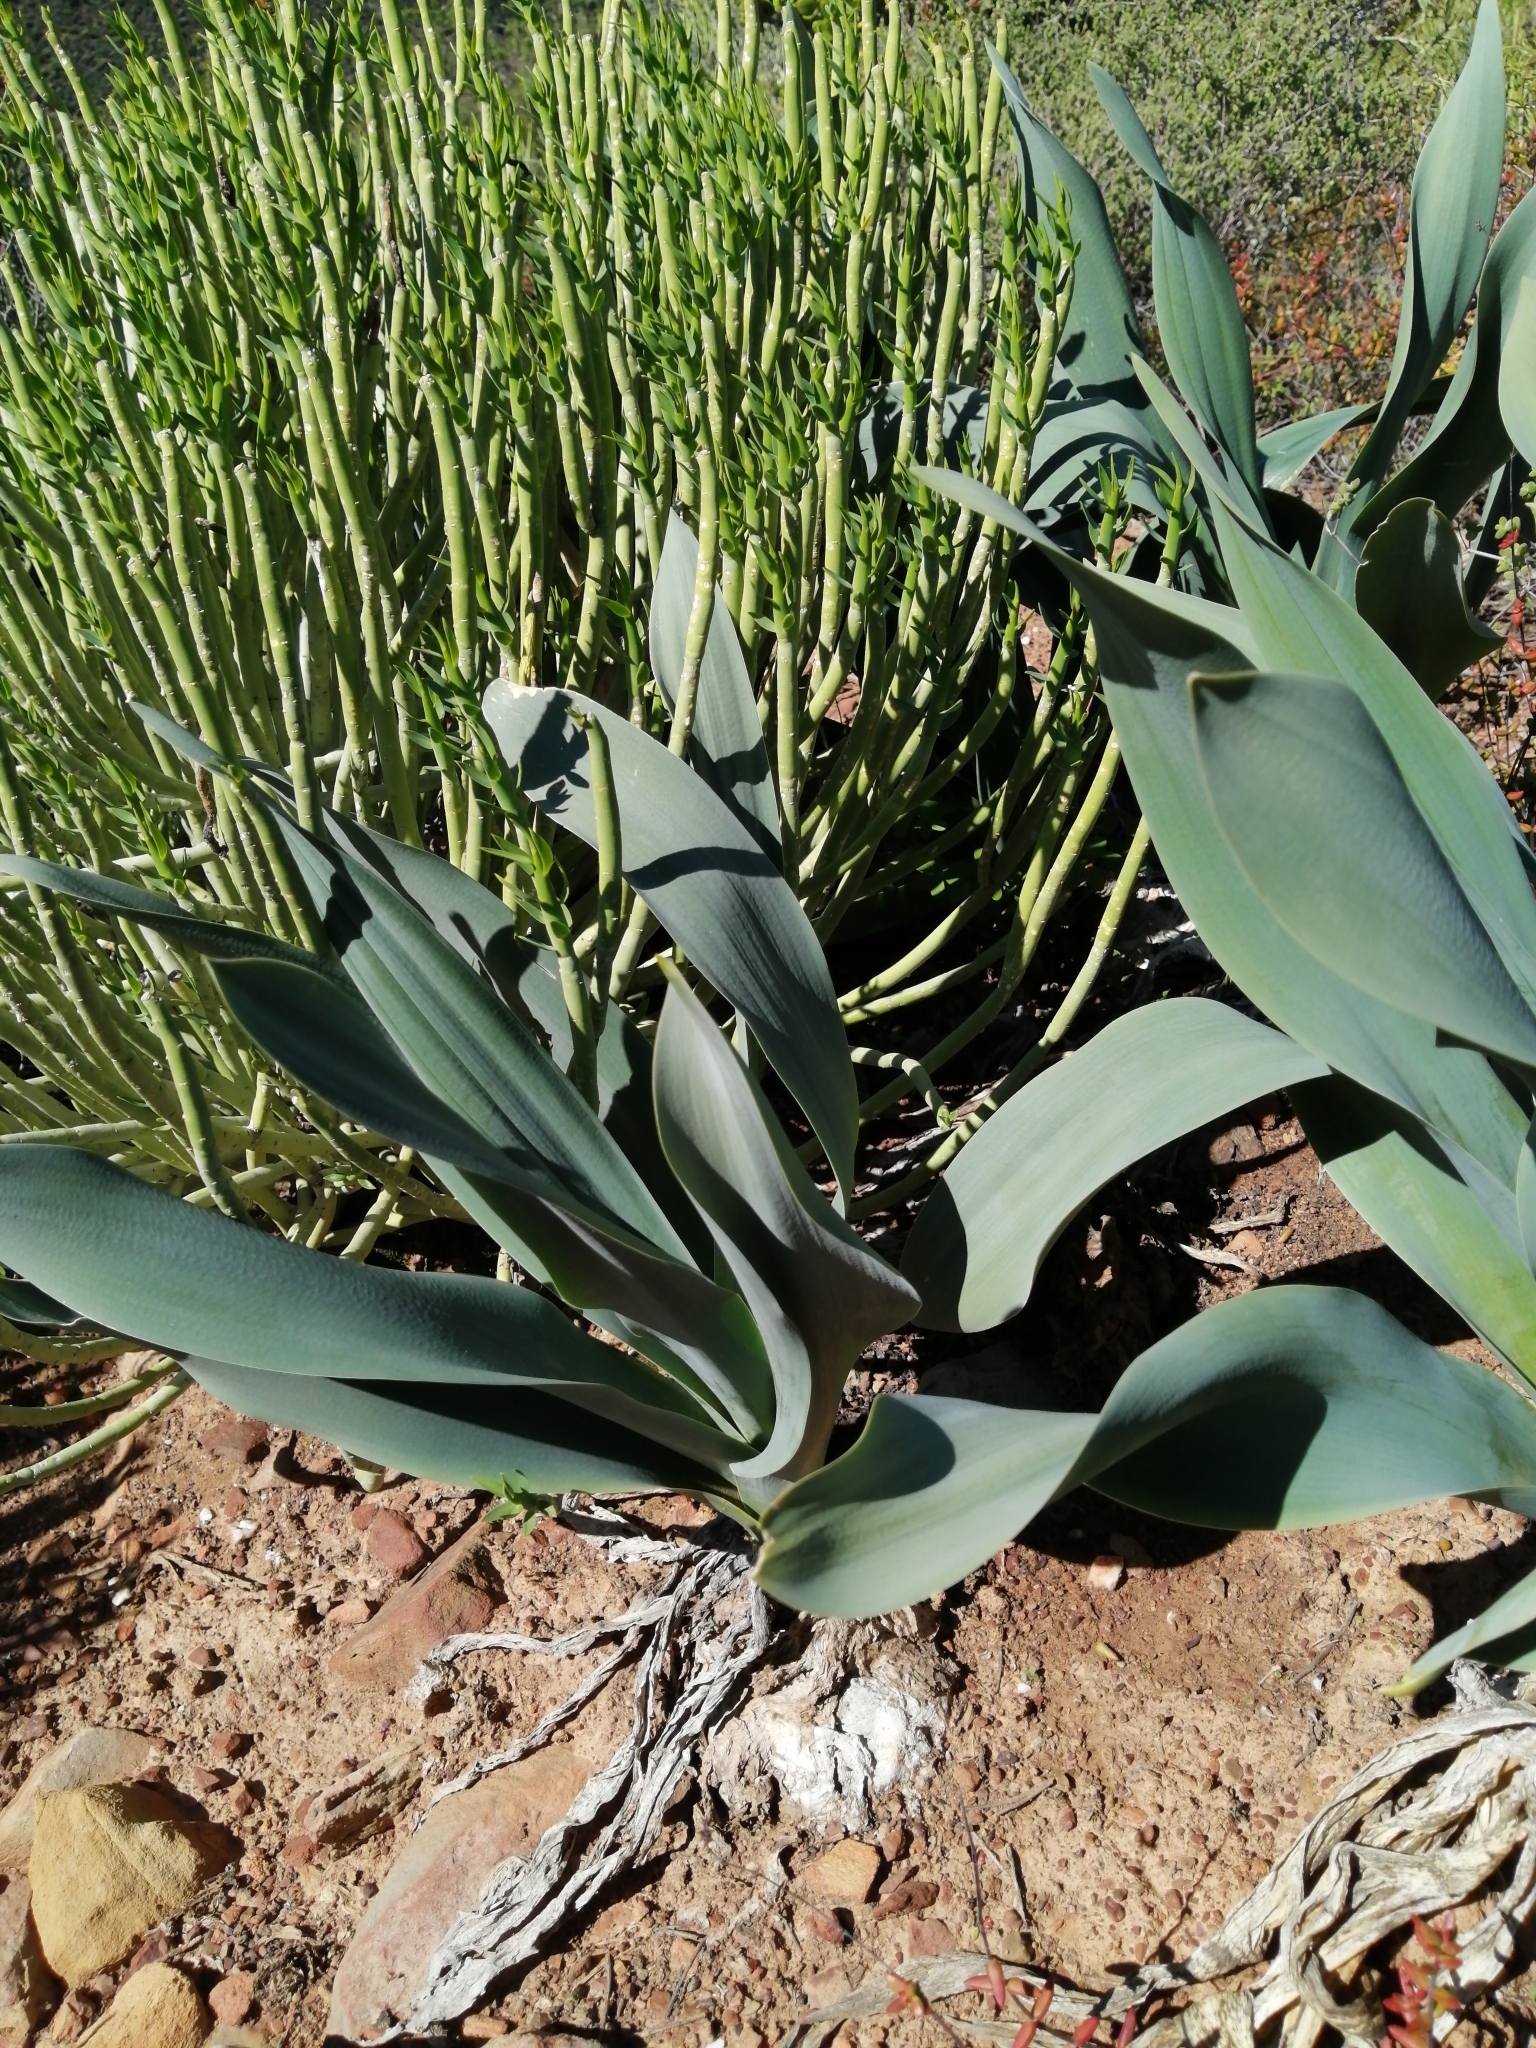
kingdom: Plantae
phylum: Tracheophyta
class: Liliopsida
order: Asparagales
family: Asparagaceae
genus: Drimia
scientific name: Drimia capensis
